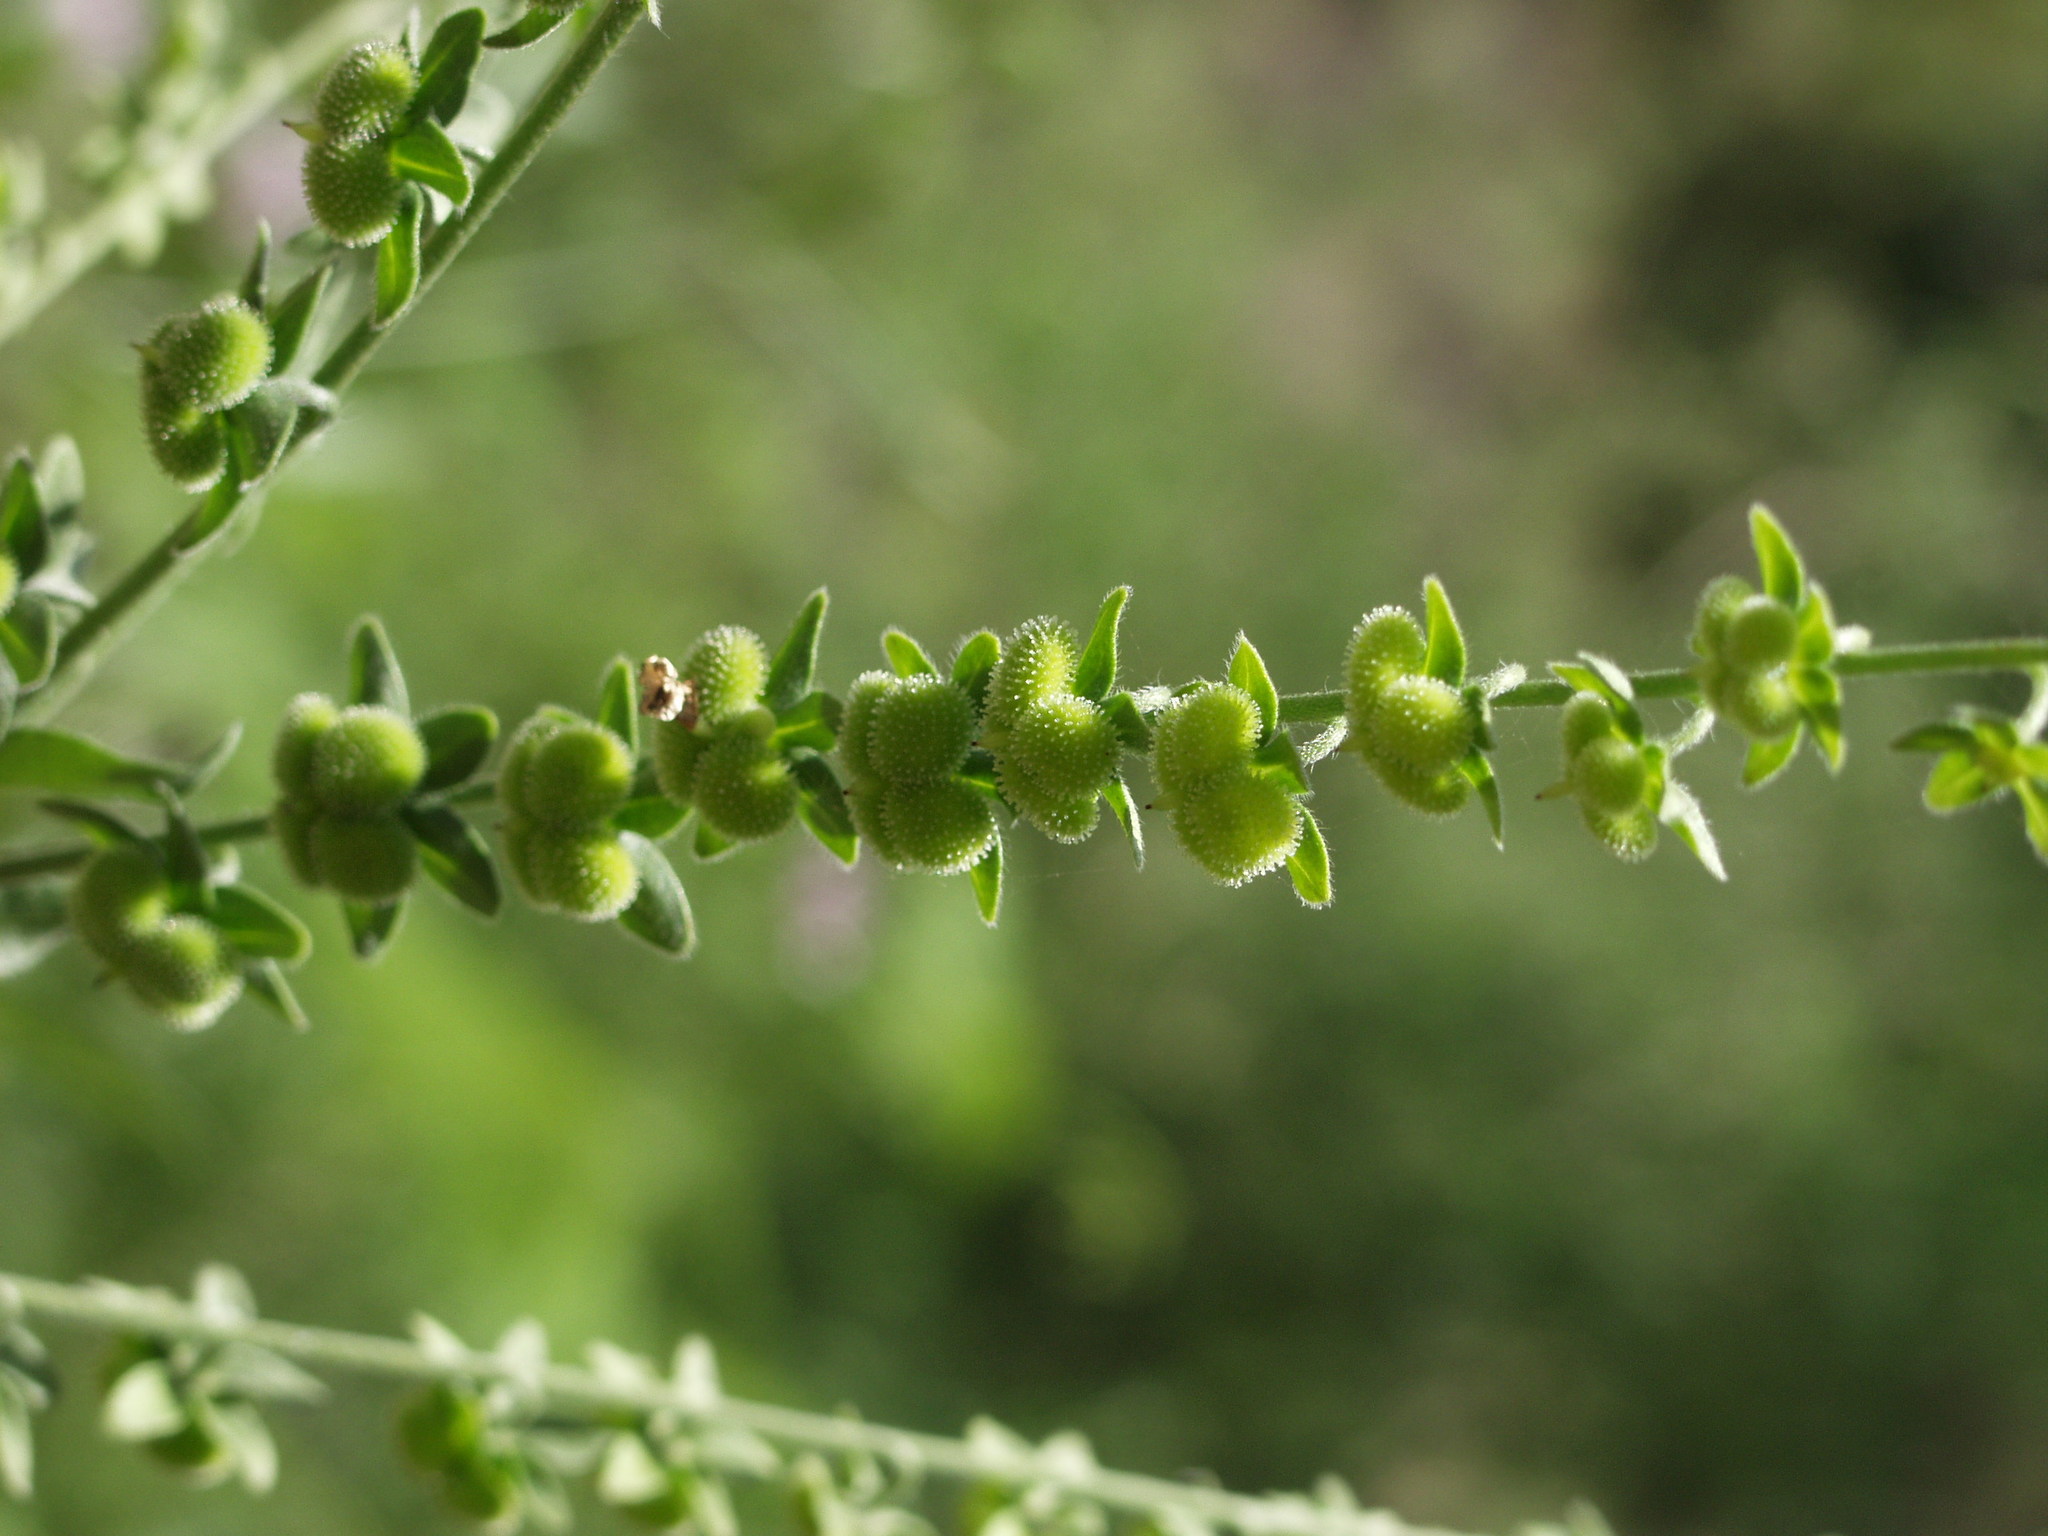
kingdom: Plantae
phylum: Tracheophyta
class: Magnoliopsida
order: Boraginales
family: Boraginaceae
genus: Cynoglossum
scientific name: Cynoglossum creticum
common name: Blue hound's tongue
